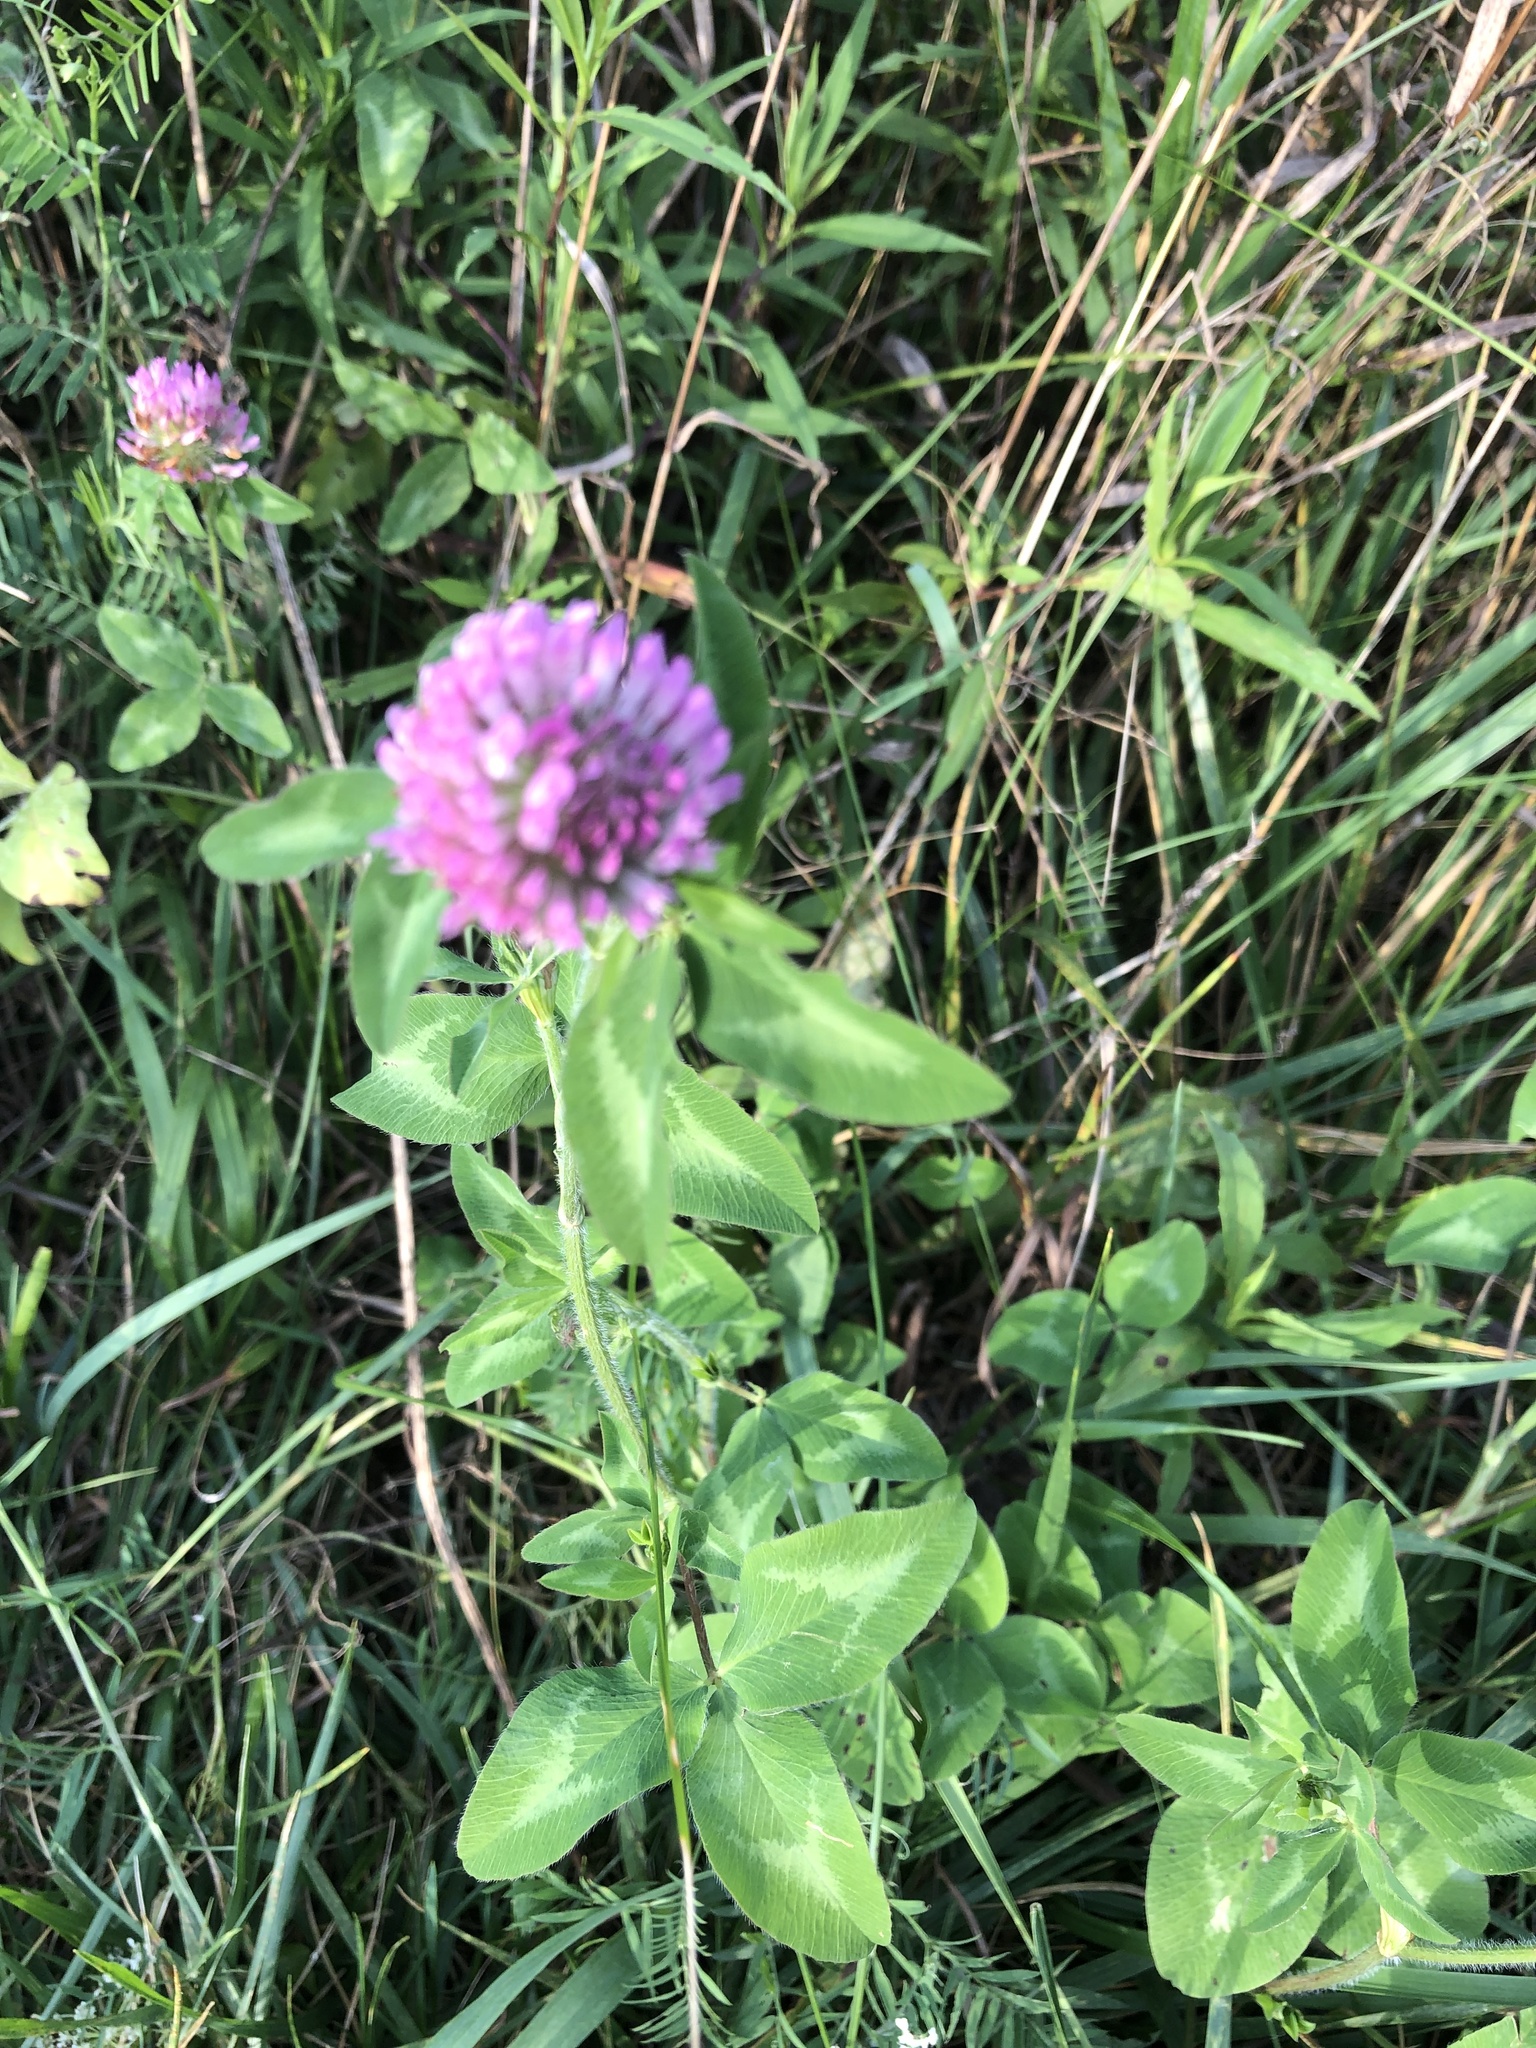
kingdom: Plantae
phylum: Tracheophyta
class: Magnoliopsida
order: Fabales
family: Fabaceae
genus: Trifolium
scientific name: Trifolium pratense
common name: Red clover
